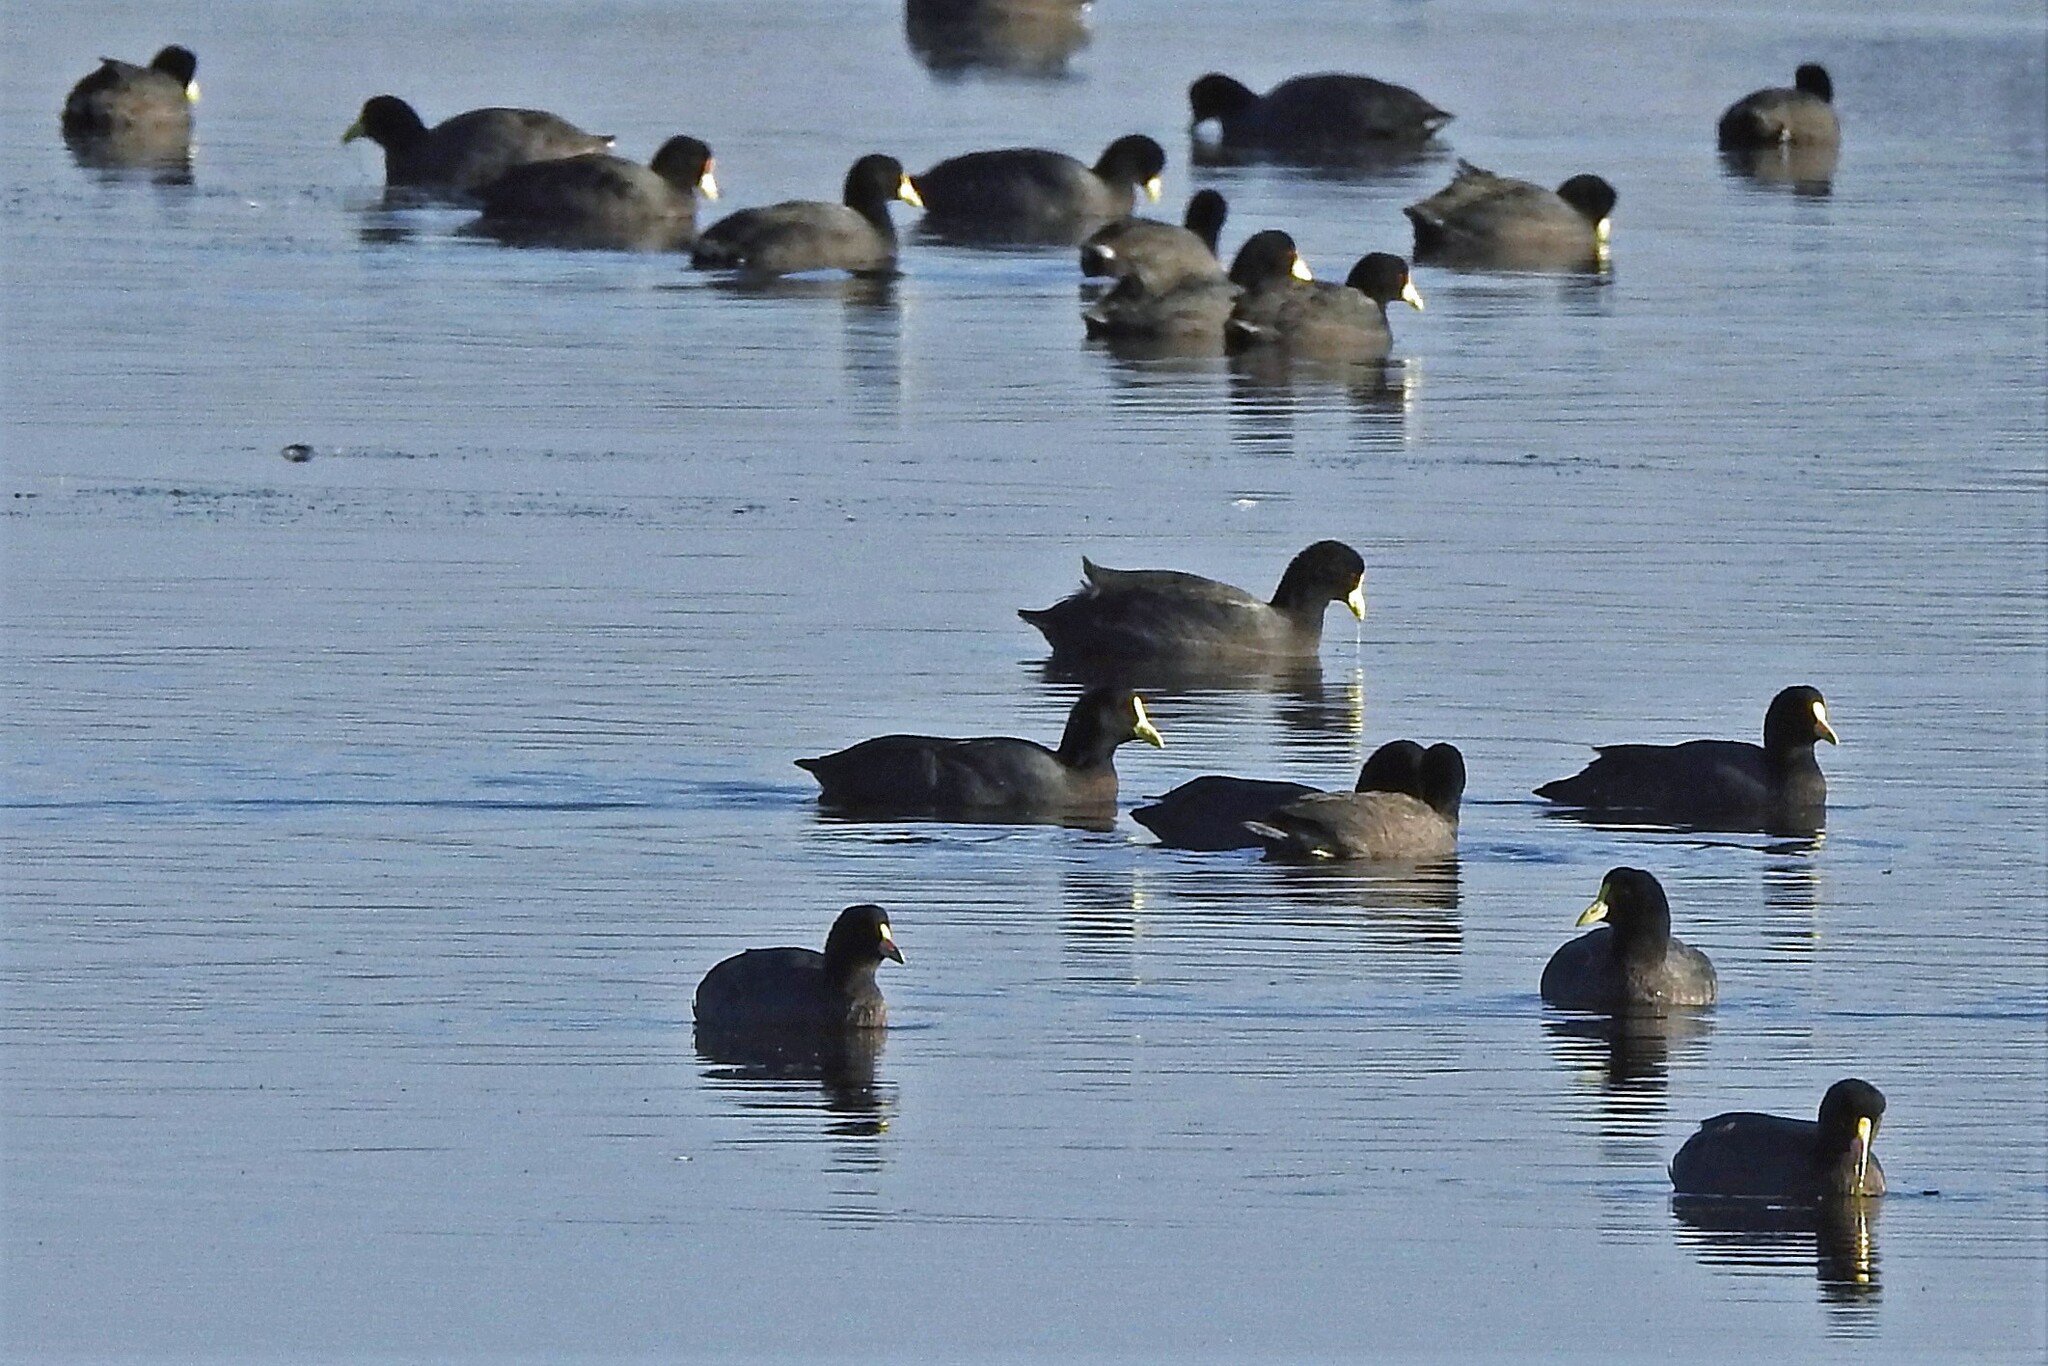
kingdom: Animalia
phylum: Chordata
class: Aves
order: Gruiformes
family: Rallidae
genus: Fulica
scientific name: Fulica leucoptera
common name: White-winged coot
